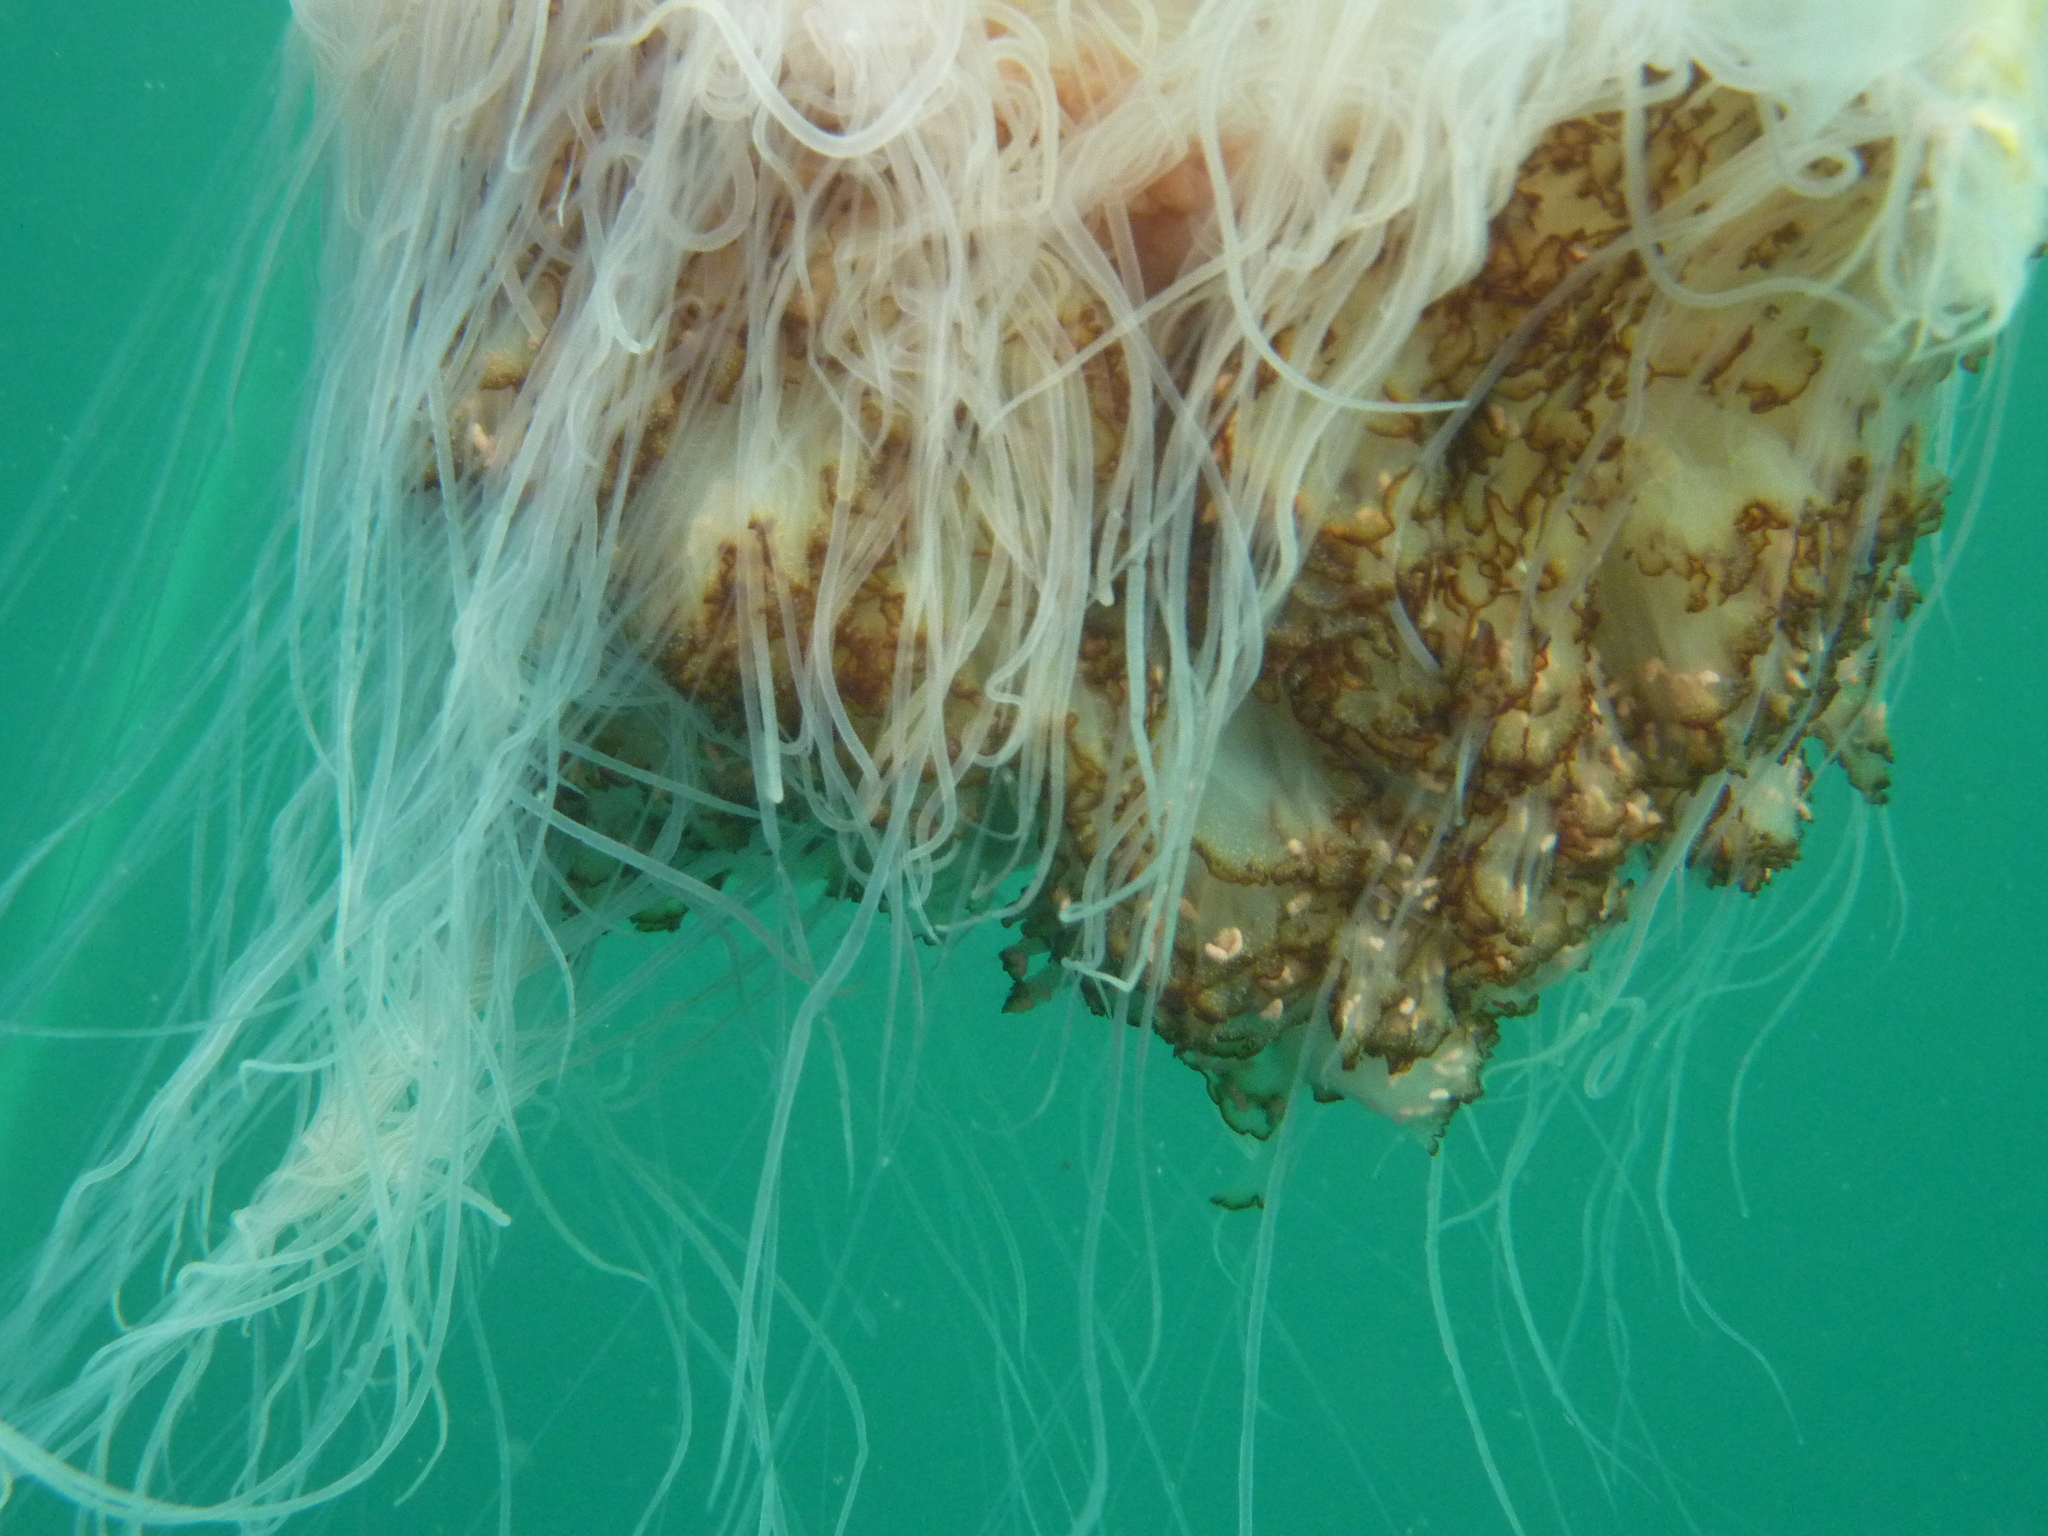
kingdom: Animalia
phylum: Cnidaria
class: Scyphozoa
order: Semaeostomeae
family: Cyaneidae
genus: Cyanea
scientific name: Cyanea annaskala
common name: Lion’s mane
